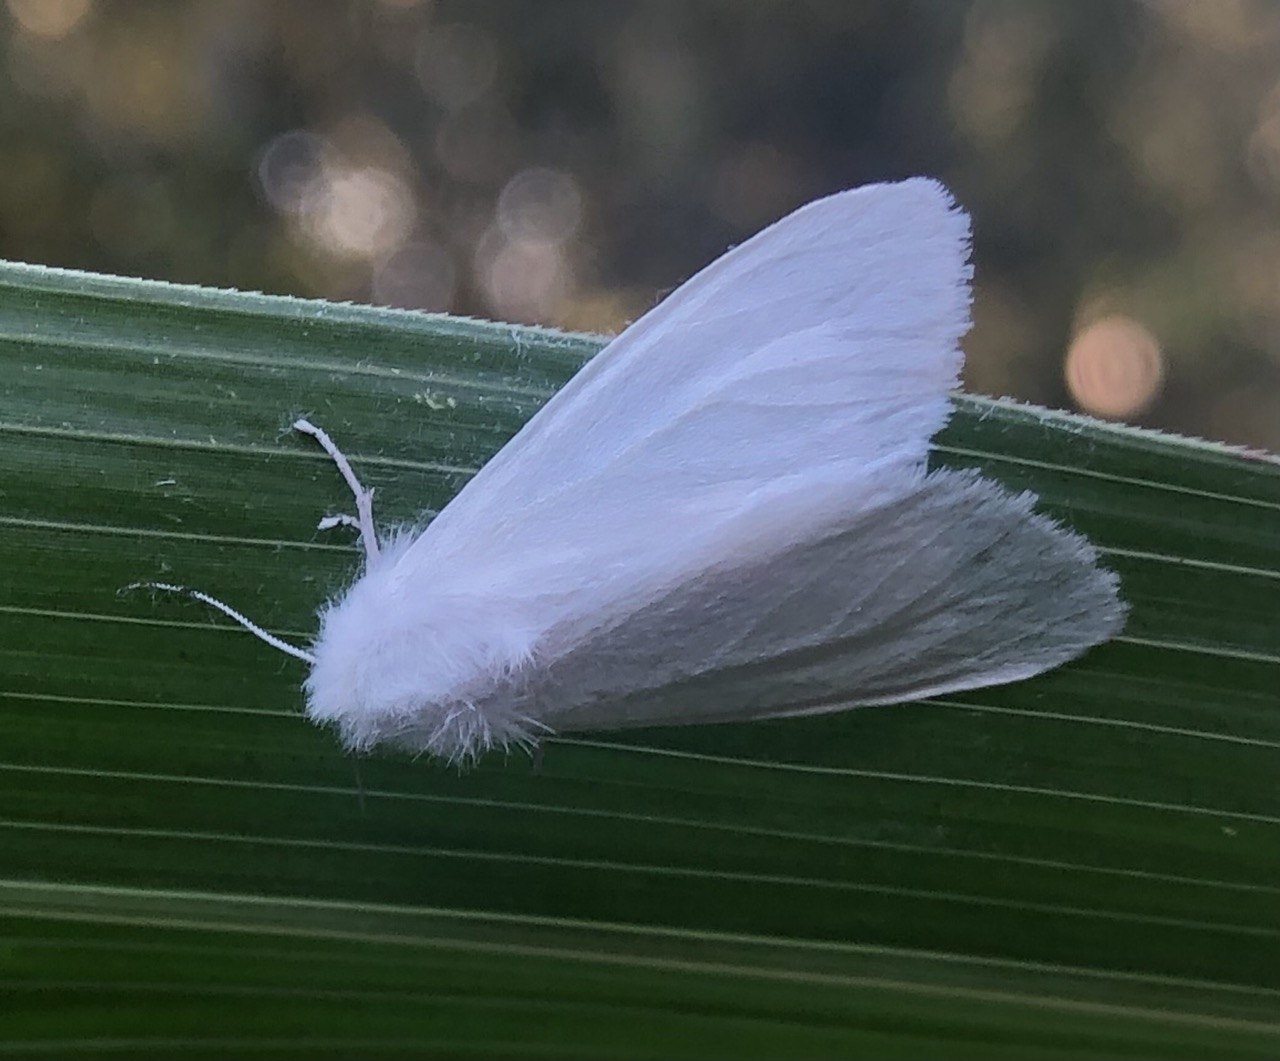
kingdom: Animalia
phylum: Arthropoda
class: Insecta
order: Lepidoptera
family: Erebidae
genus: Hyphantria
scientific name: Hyphantria cunea
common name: American white moth
